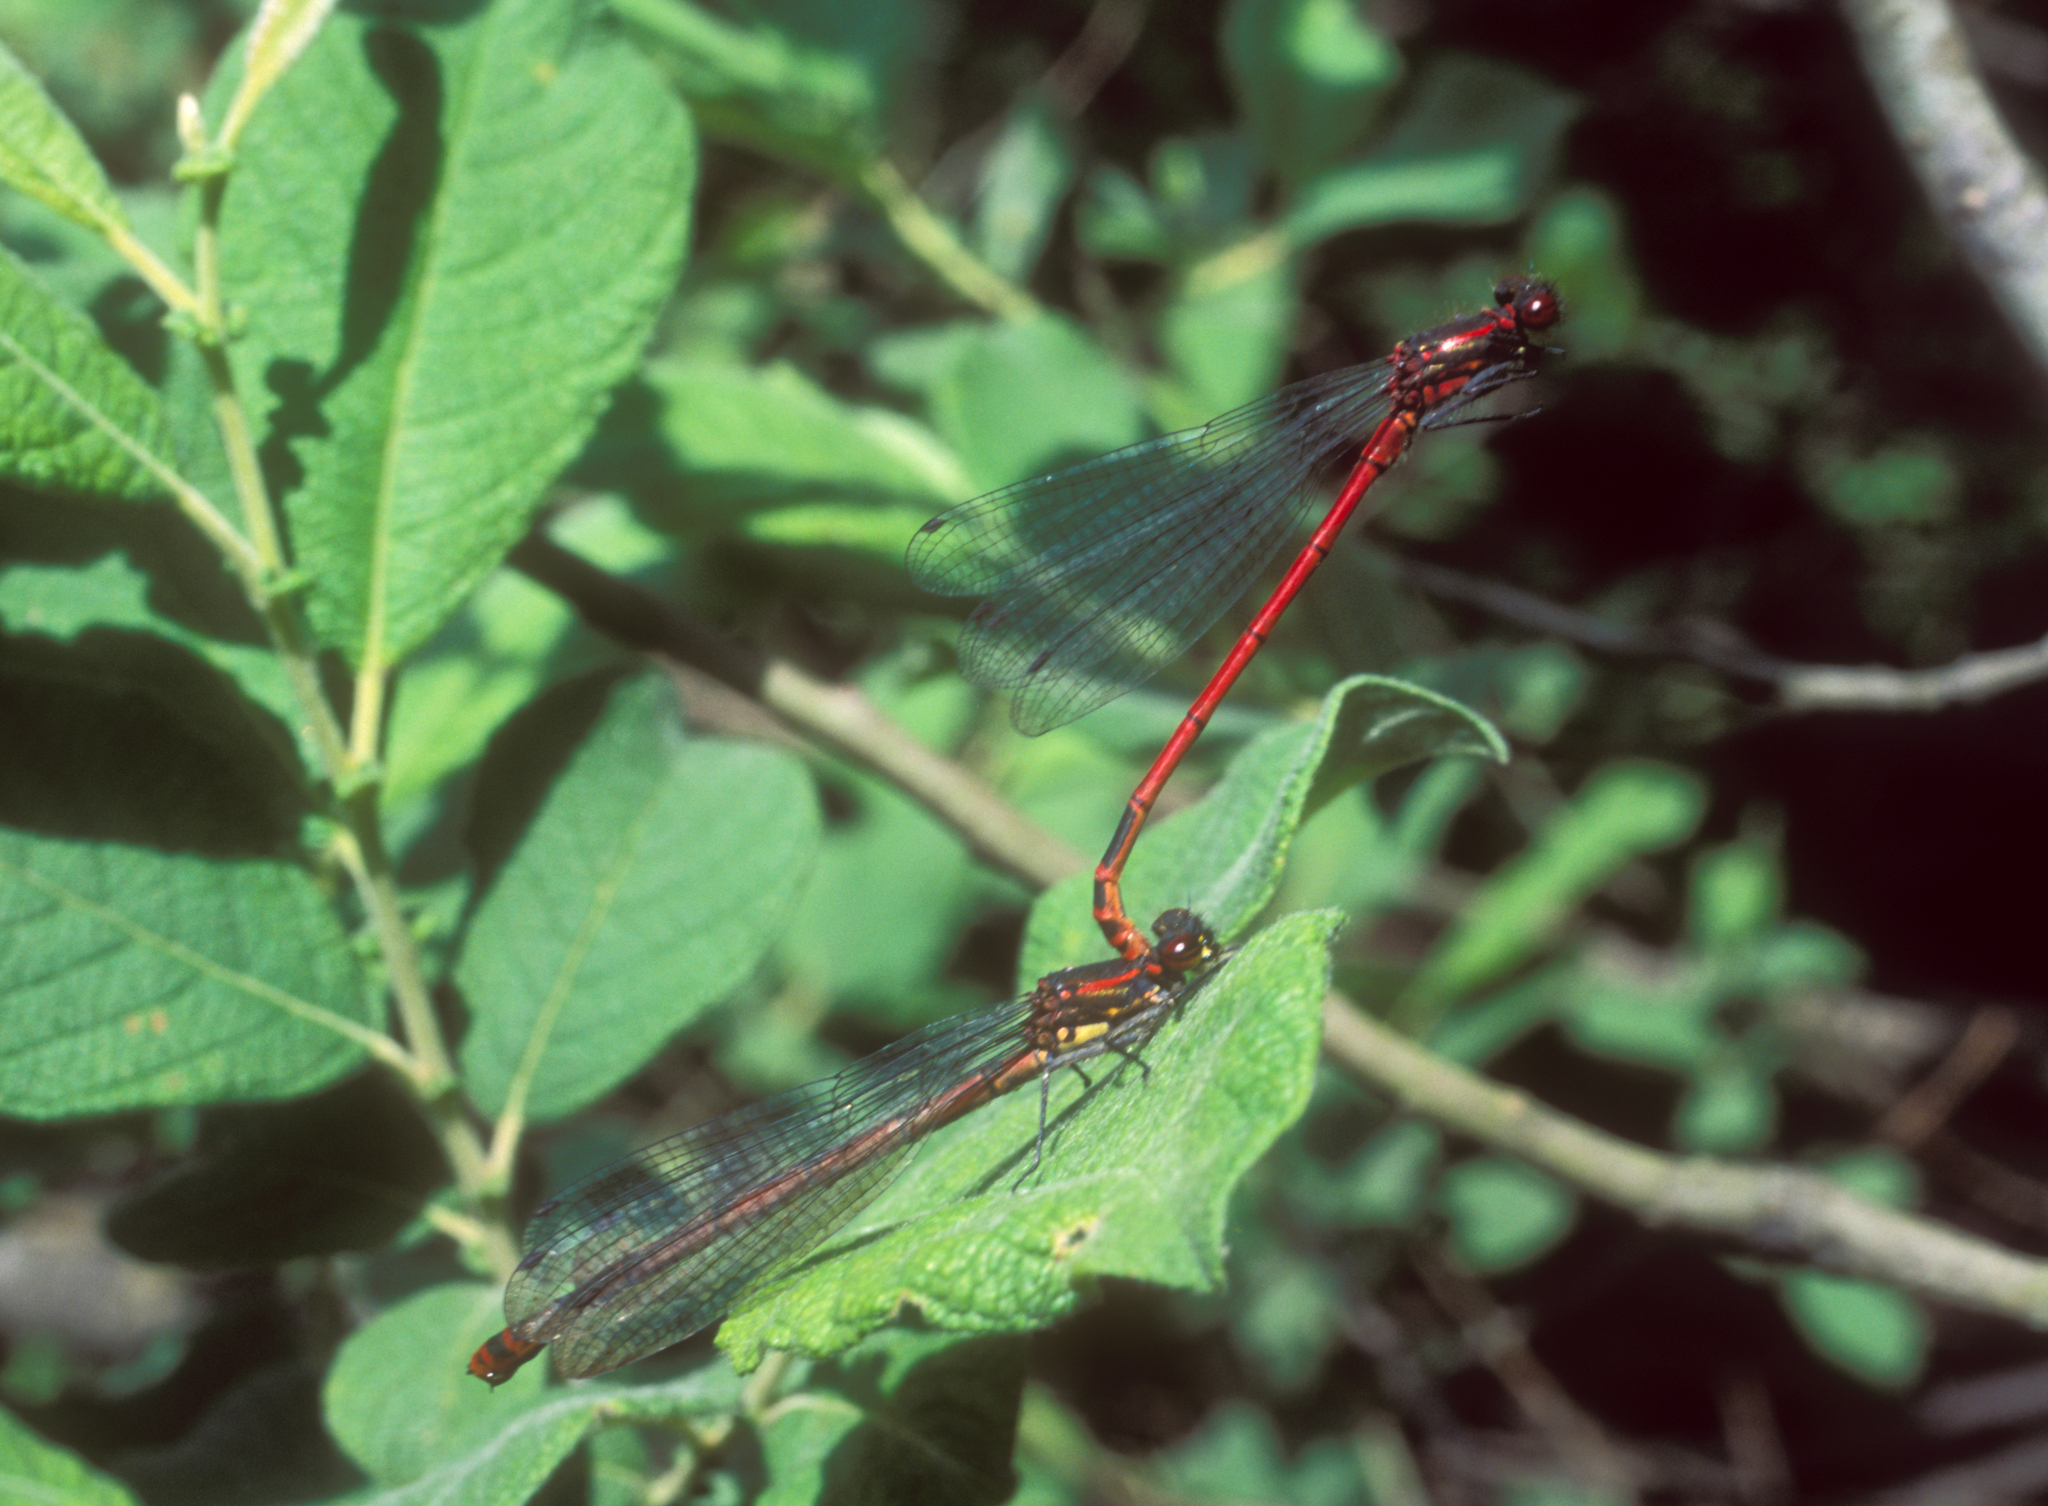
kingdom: Animalia
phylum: Arthropoda
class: Insecta
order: Odonata
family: Coenagrionidae
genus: Pyrrhosoma
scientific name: Pyrrhosoma nymphula
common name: Large red damsel
